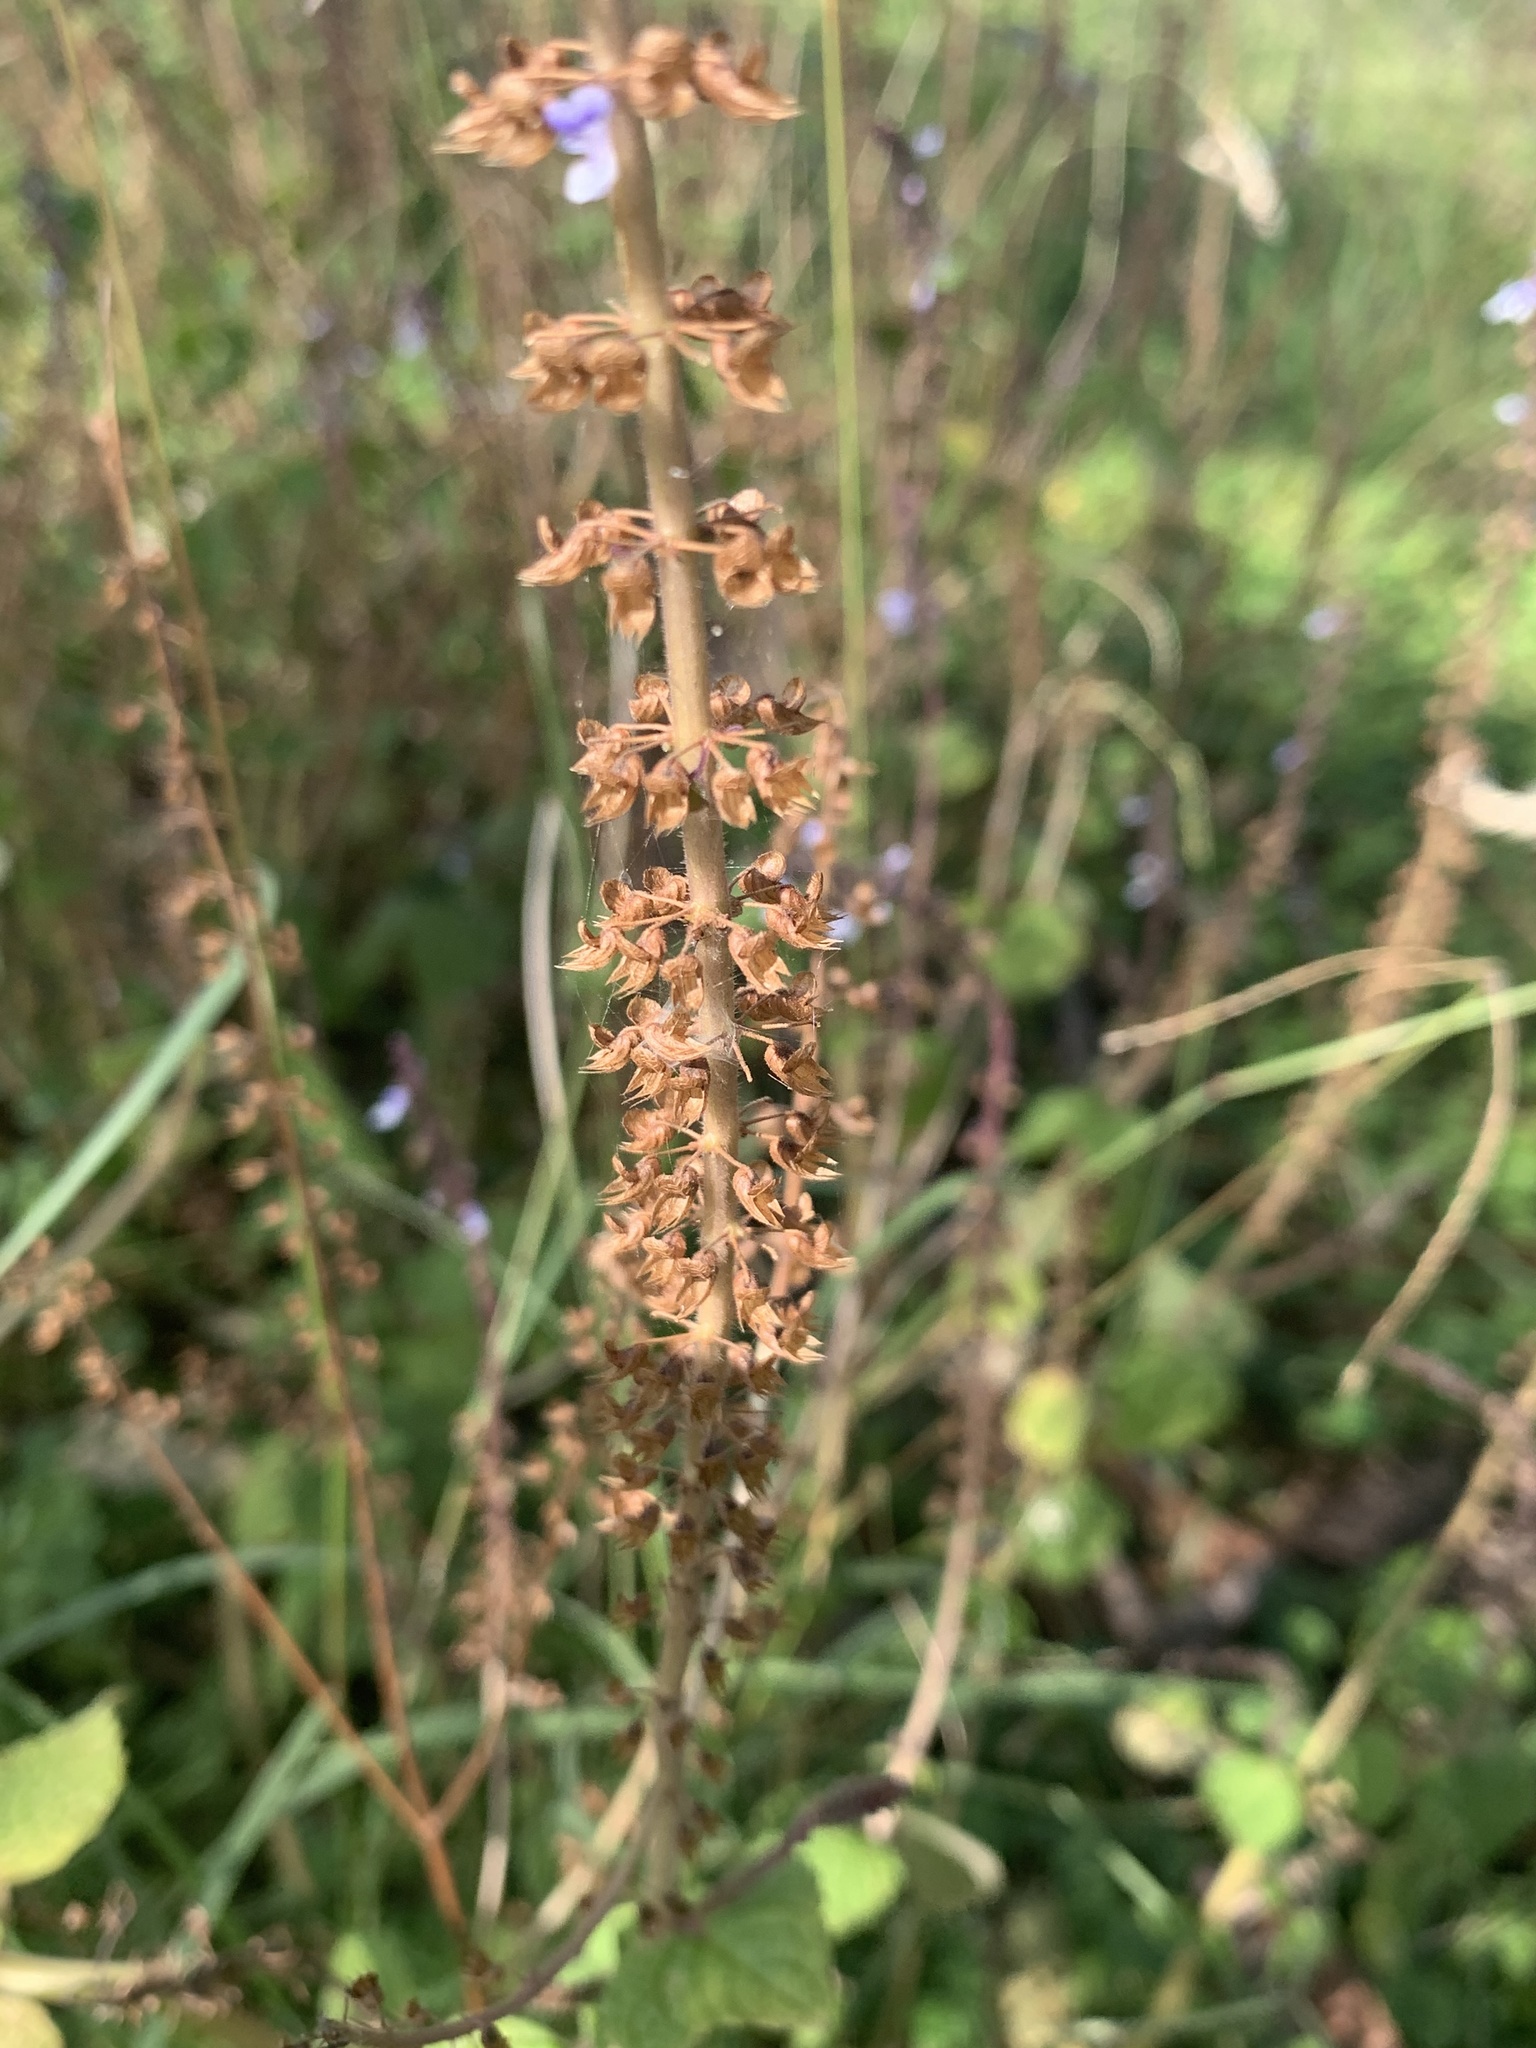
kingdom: Plantae
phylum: Tracheophyta
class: Magnoliopsida
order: Lamiales
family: Lamiaceae
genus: Coleus
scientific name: Coleus australis
